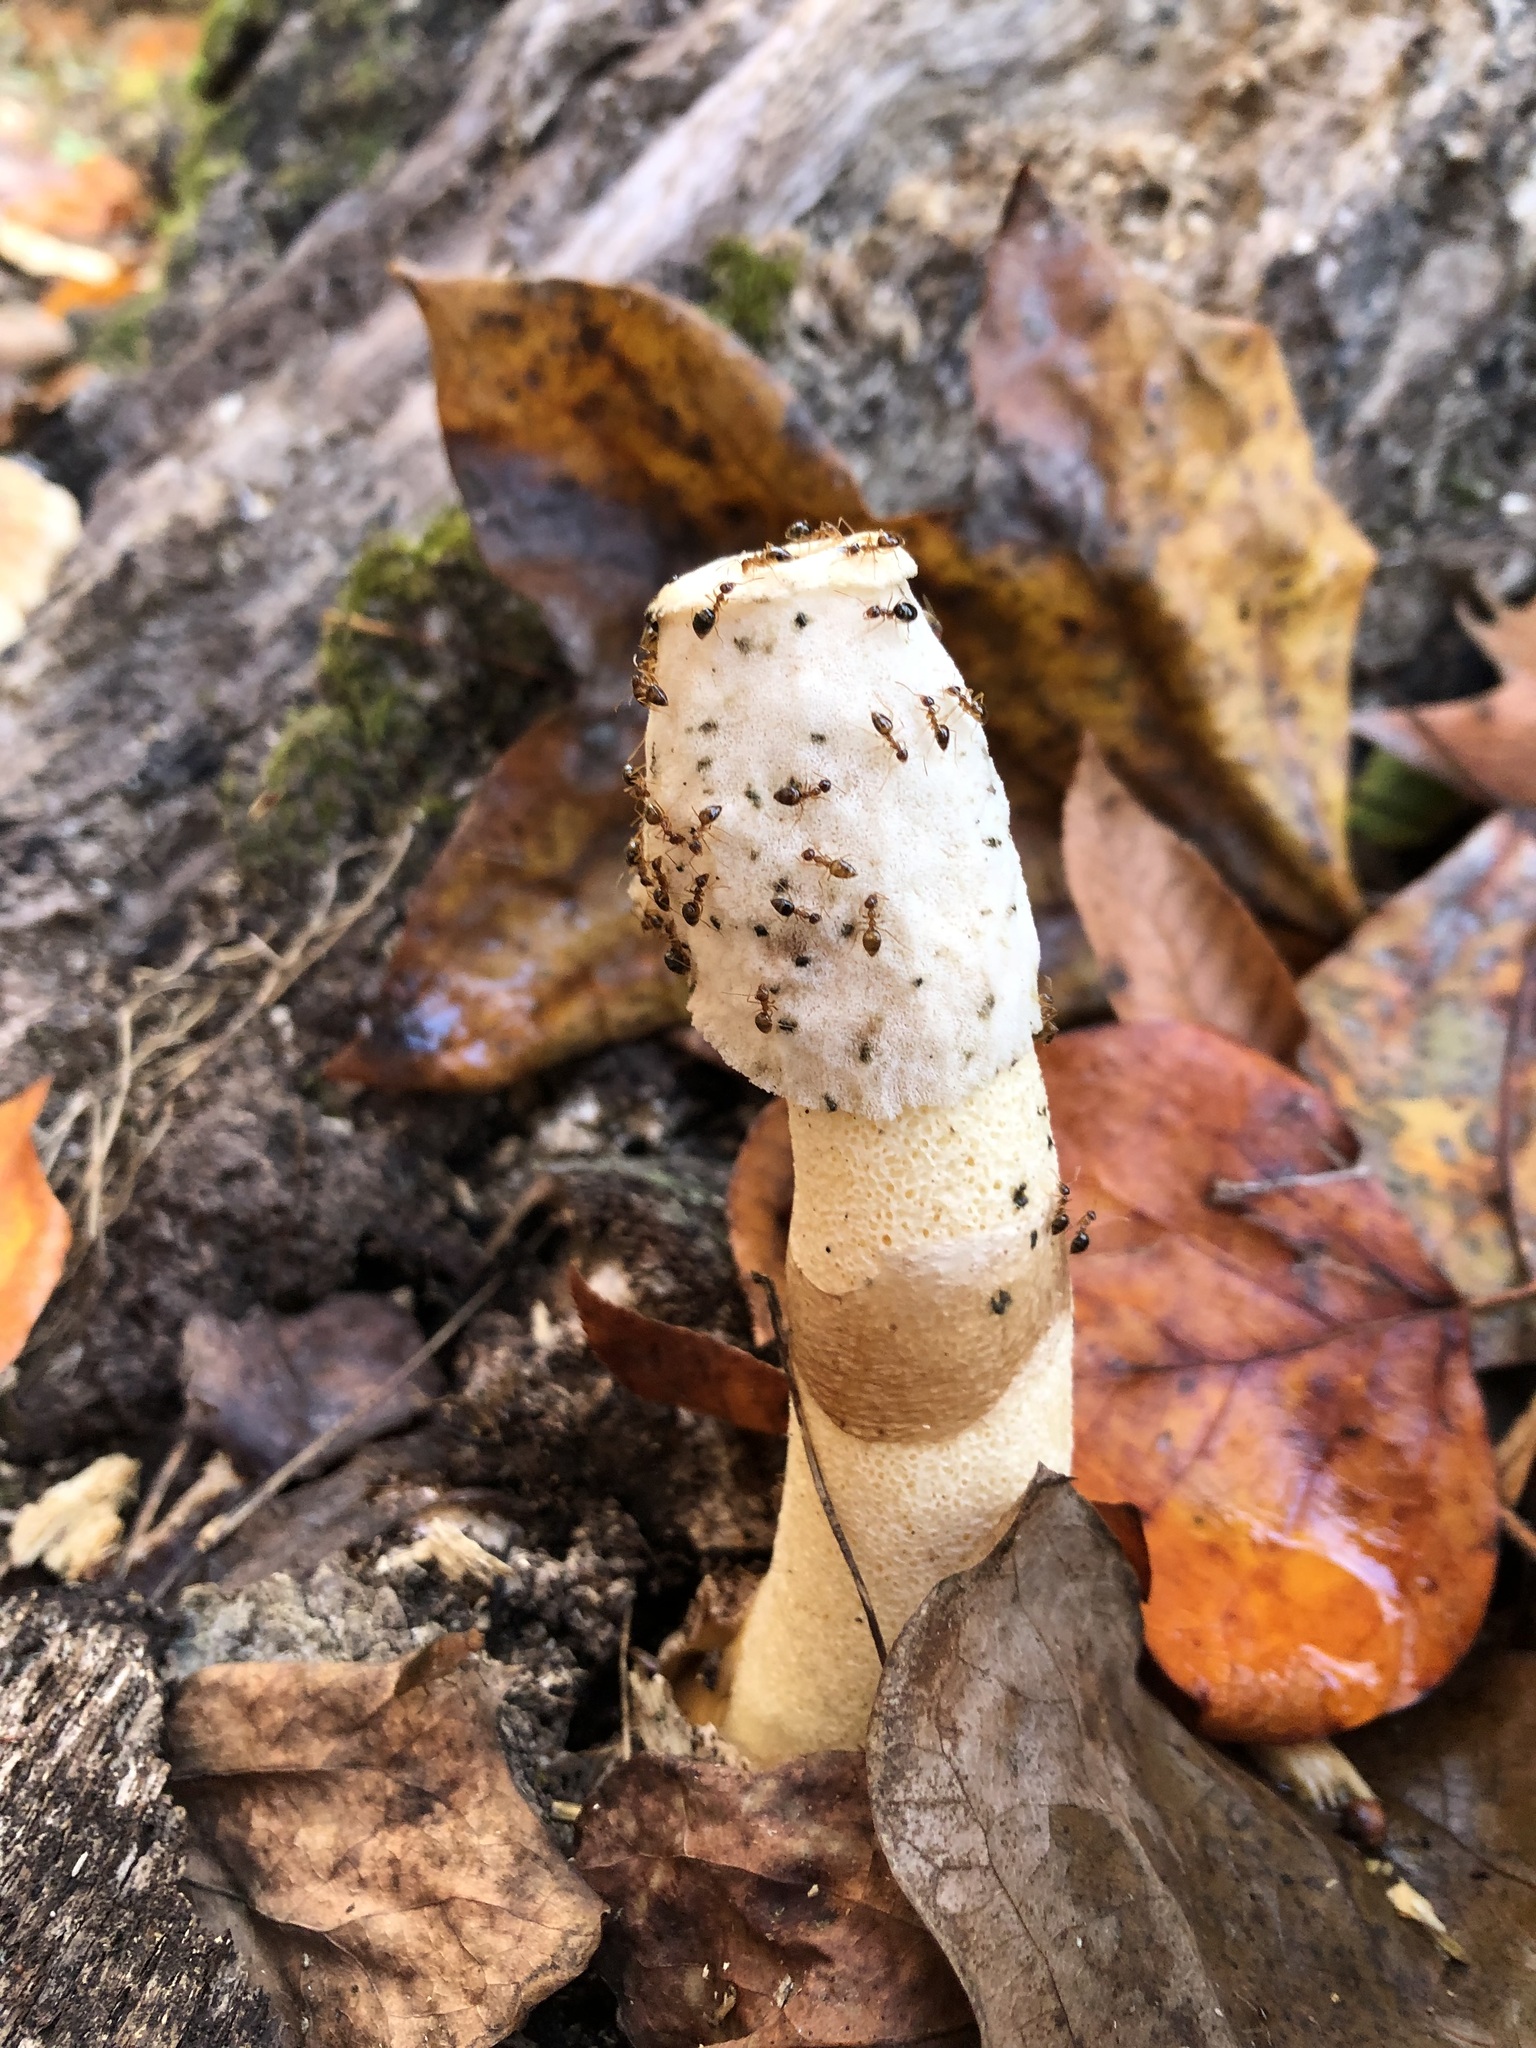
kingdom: Fungi
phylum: Basidiomycota
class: Agaricomycetes
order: Phallales
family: Phallaceae
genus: Phallus
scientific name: Phallus ravenelii
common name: Ravenel's stinkhorn
